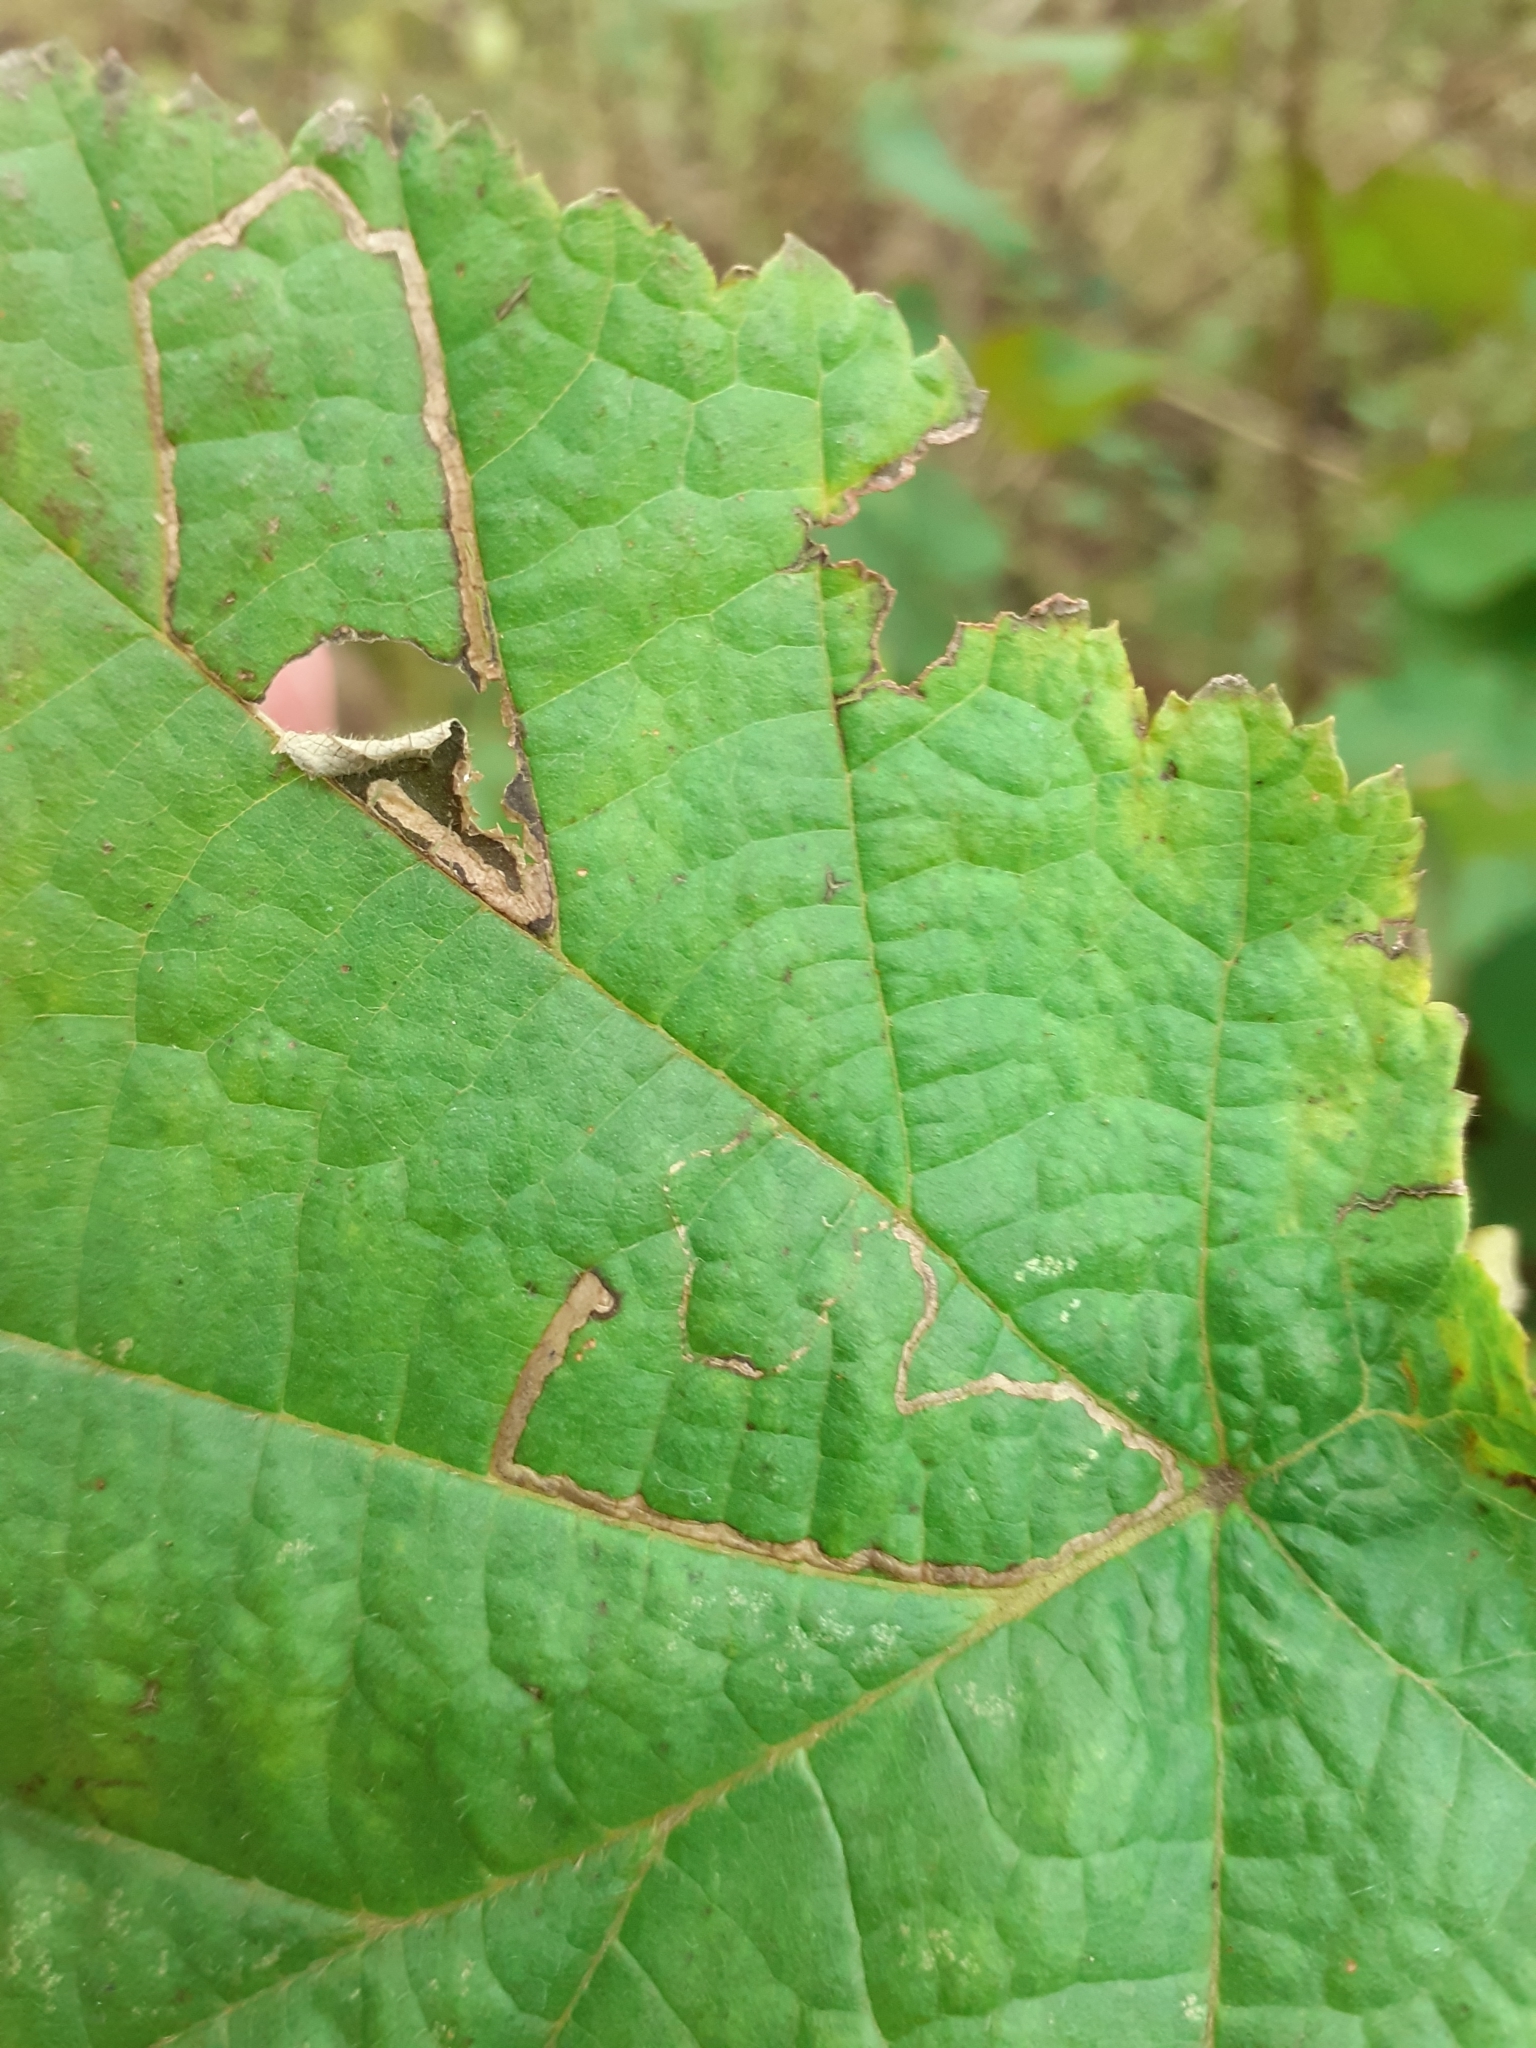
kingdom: Animalia
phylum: Arthropoda
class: Insecta
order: Lepidoptera
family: Nepticulidae
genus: Stigmella
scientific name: Stigmella microtheriella
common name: Nut-tree pigmy
